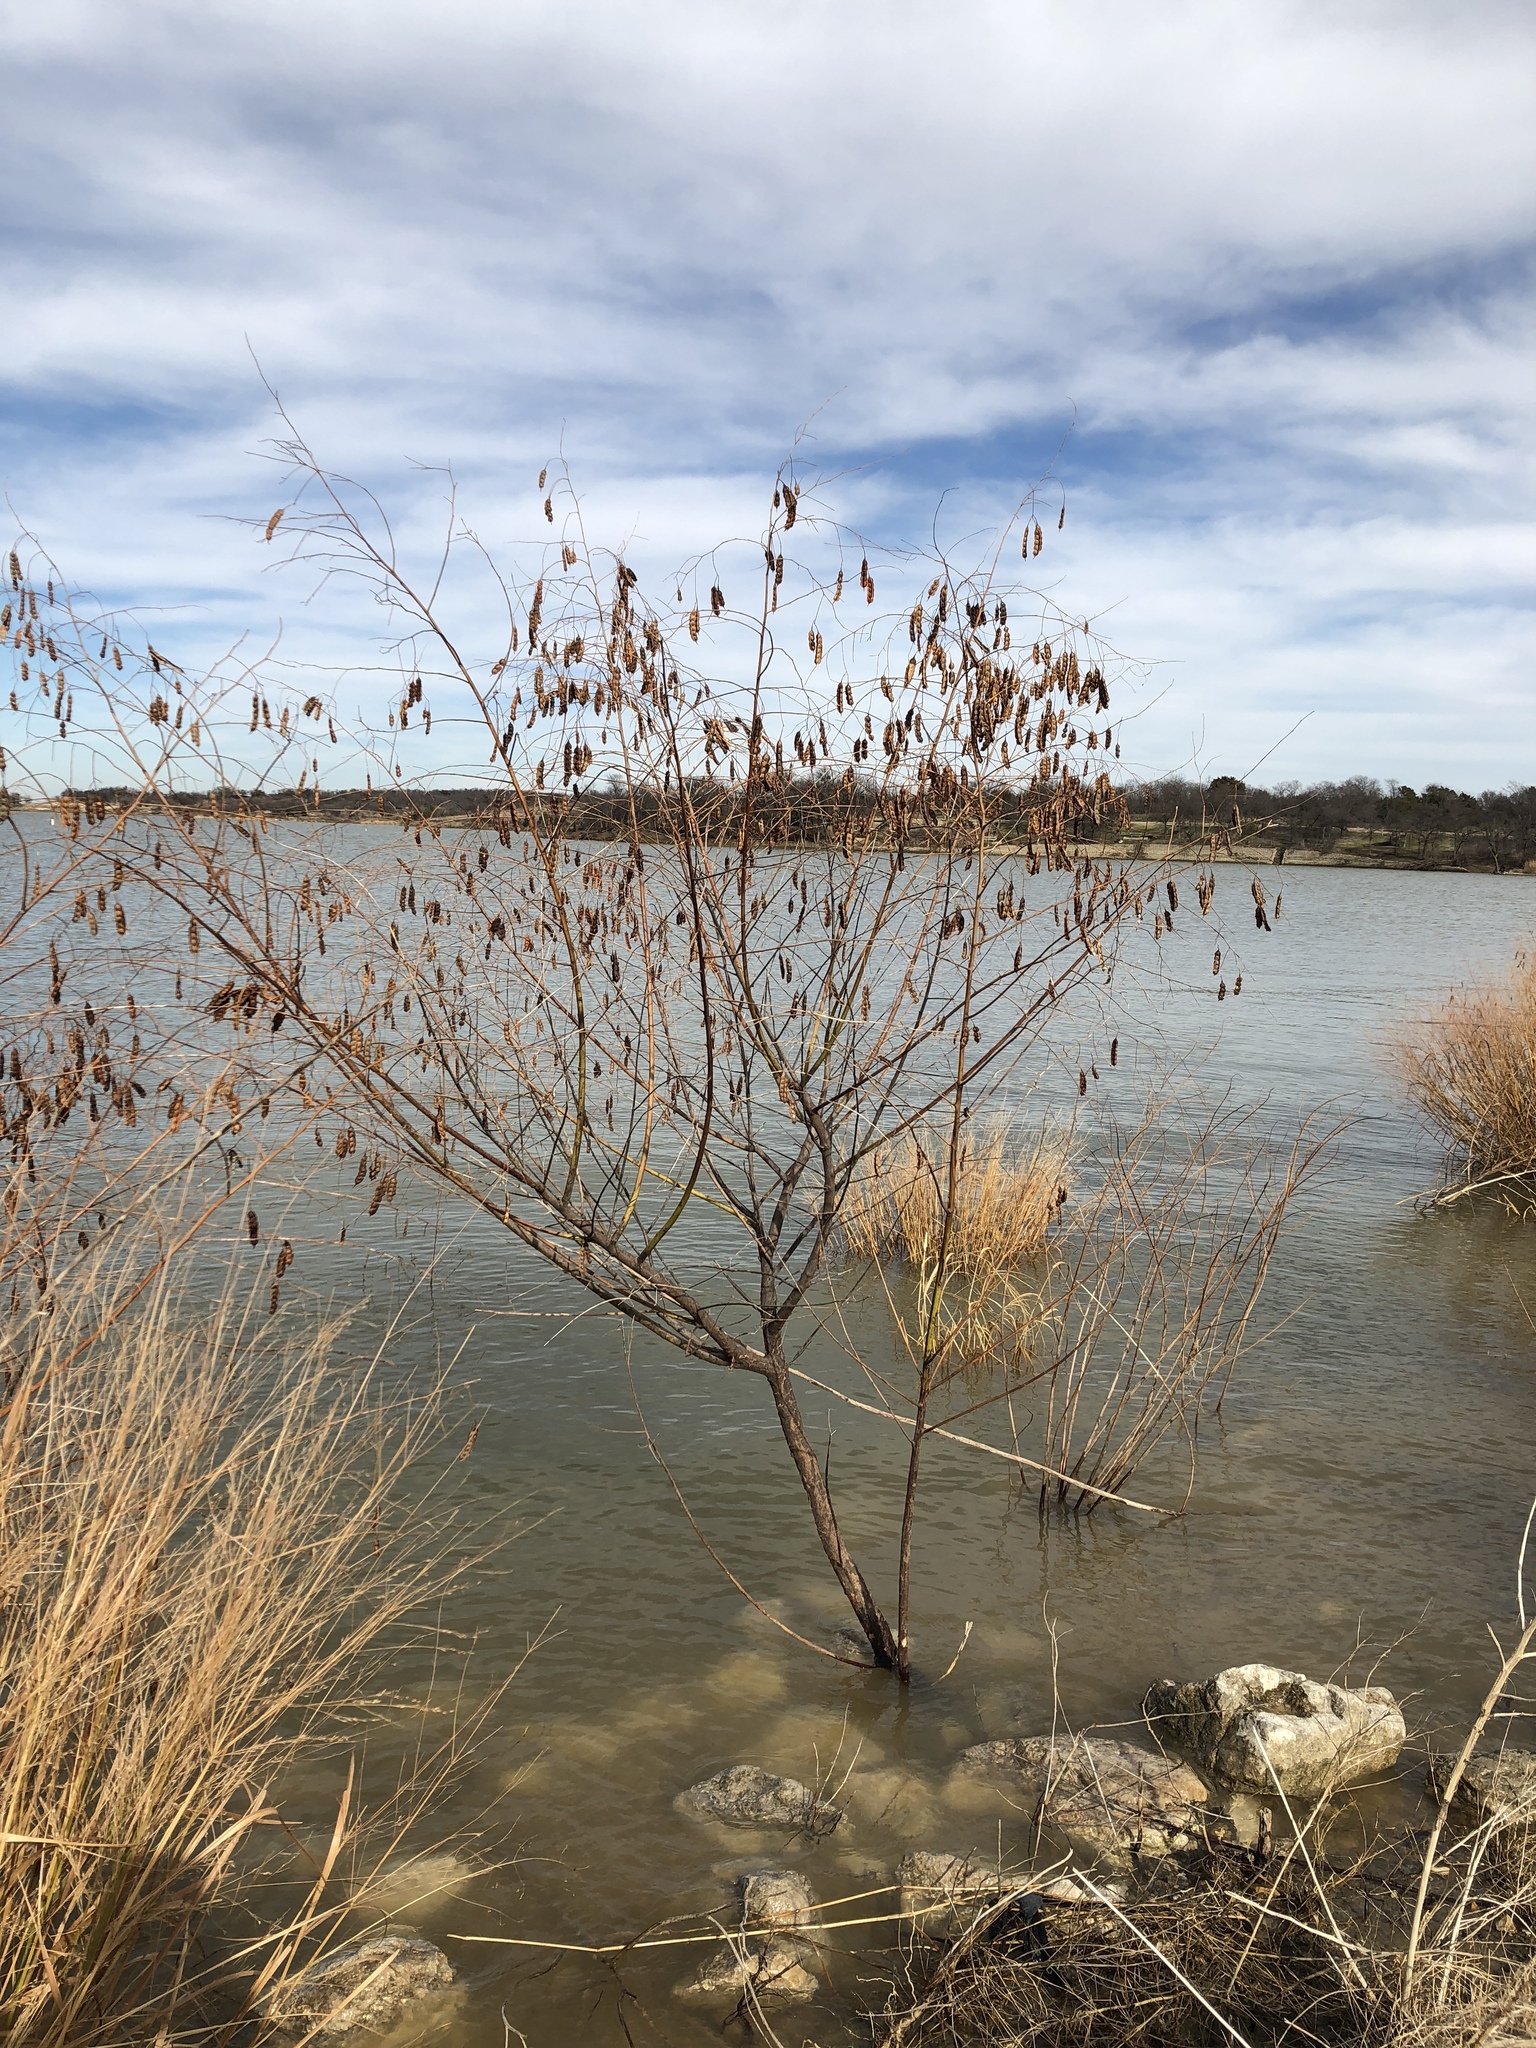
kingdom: Plantae
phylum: Tracheophyta
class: Magnoliopsida
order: Fabales
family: Fabaceae
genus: Sesbania
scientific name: Sesbania drummondii
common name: Poison-bean
